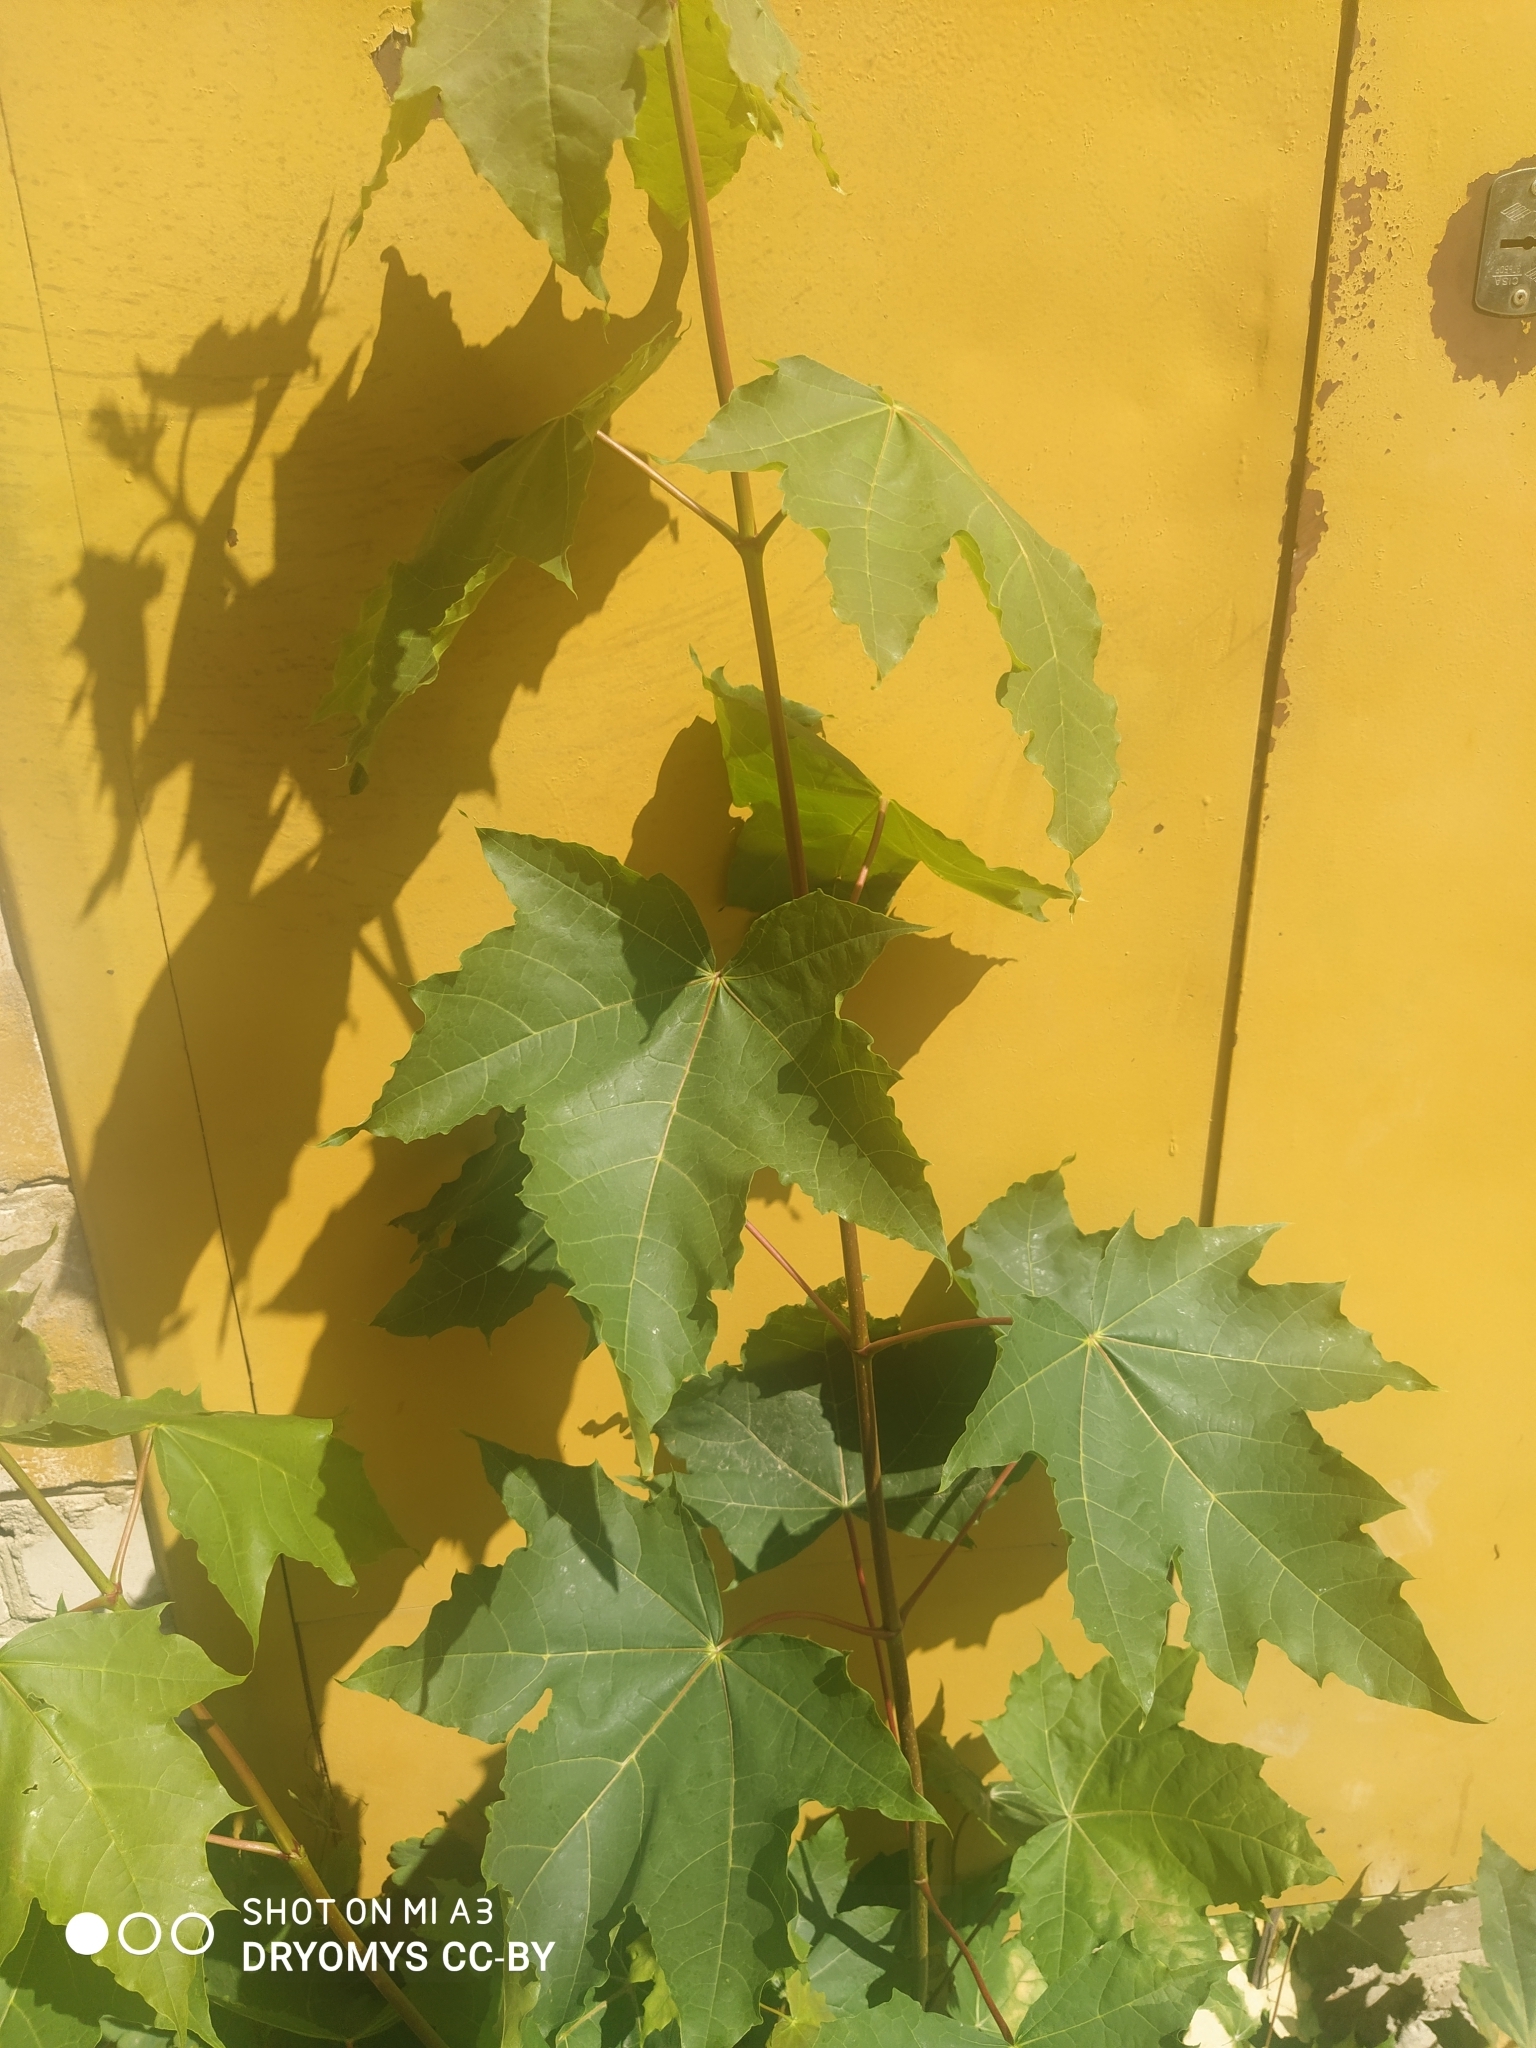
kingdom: Plantae
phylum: Tracheophyta
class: Magnoliopsida
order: Sapindales
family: Sapindaceae
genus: Acer
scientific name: Acer platanoides
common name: Norway maple
